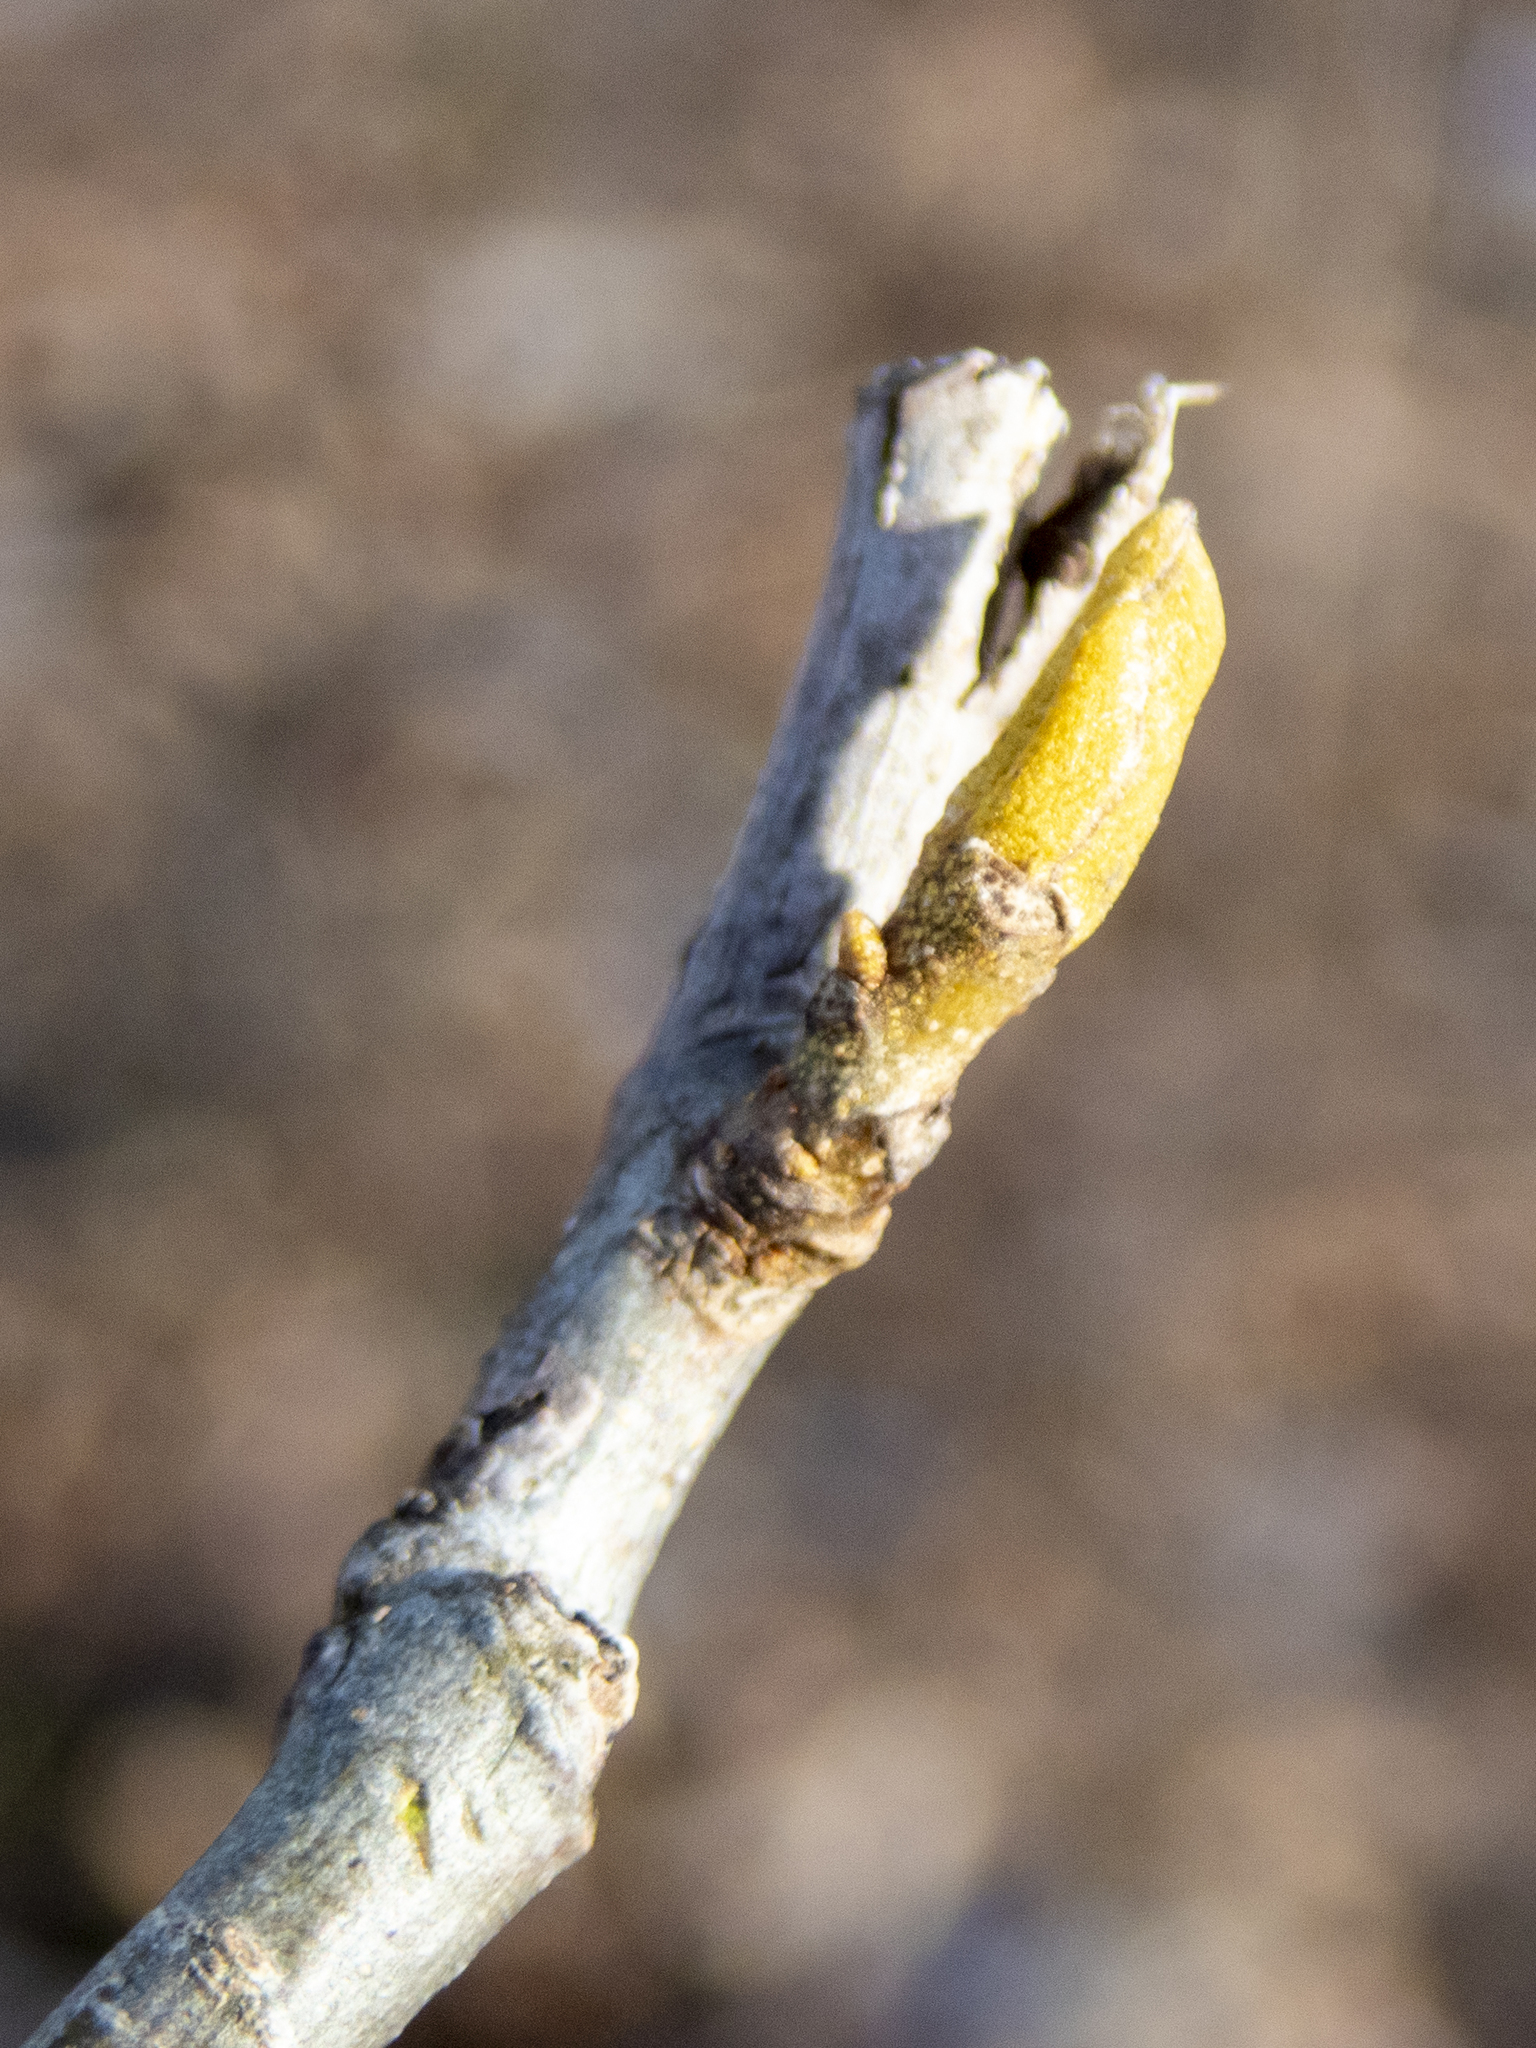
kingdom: Plantae
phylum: Tracheophyta
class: Magnoliopsida
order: Fagales
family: Juglandaceae
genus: Carya
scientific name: Carya cordiformis
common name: Bitternut hickory
